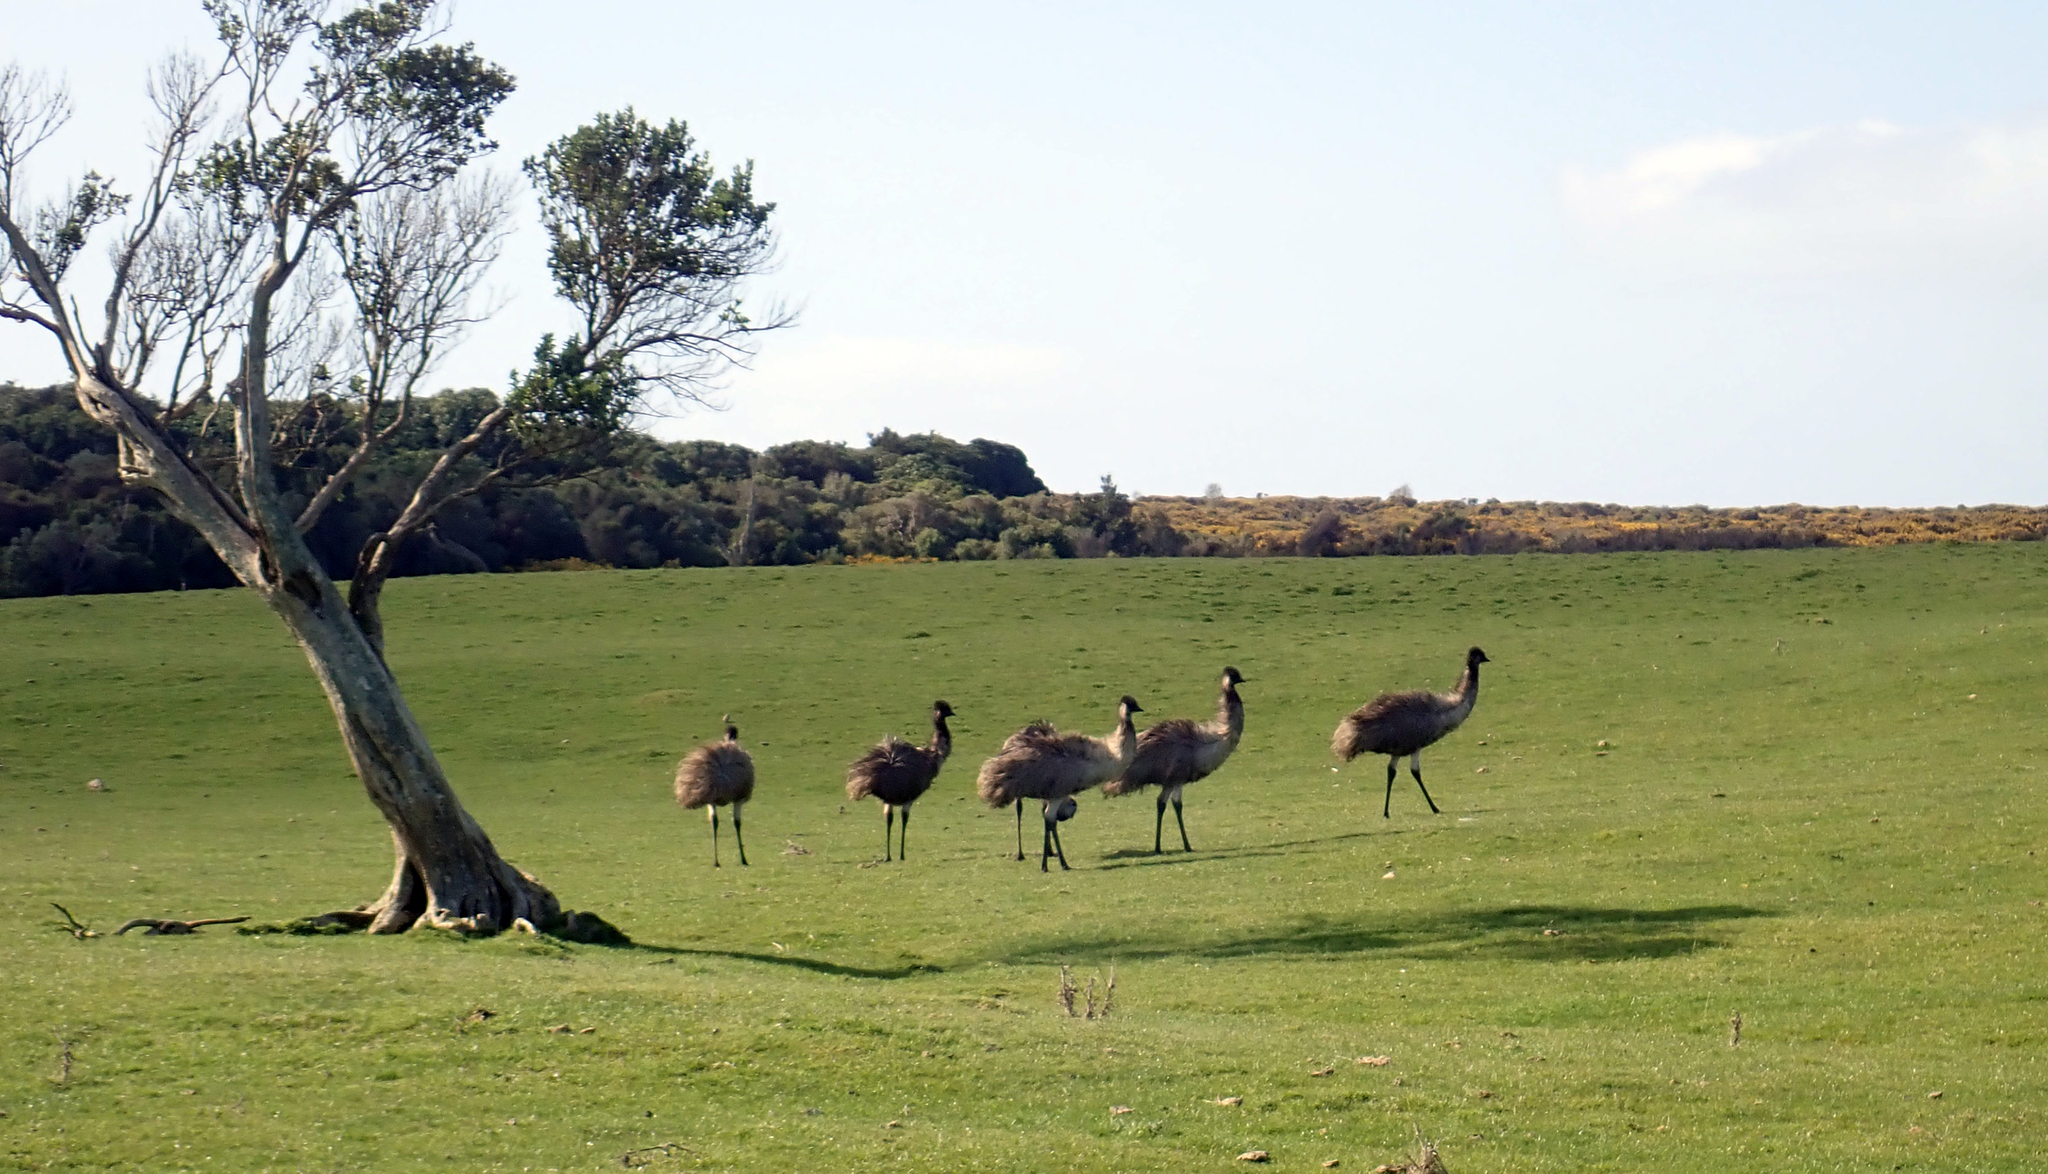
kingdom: Animalia
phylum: Chordata
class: Aves
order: Casuariiformes
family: Dromaiidae
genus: Dromaius
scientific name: Dromaius novaehollandiae
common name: Emu
